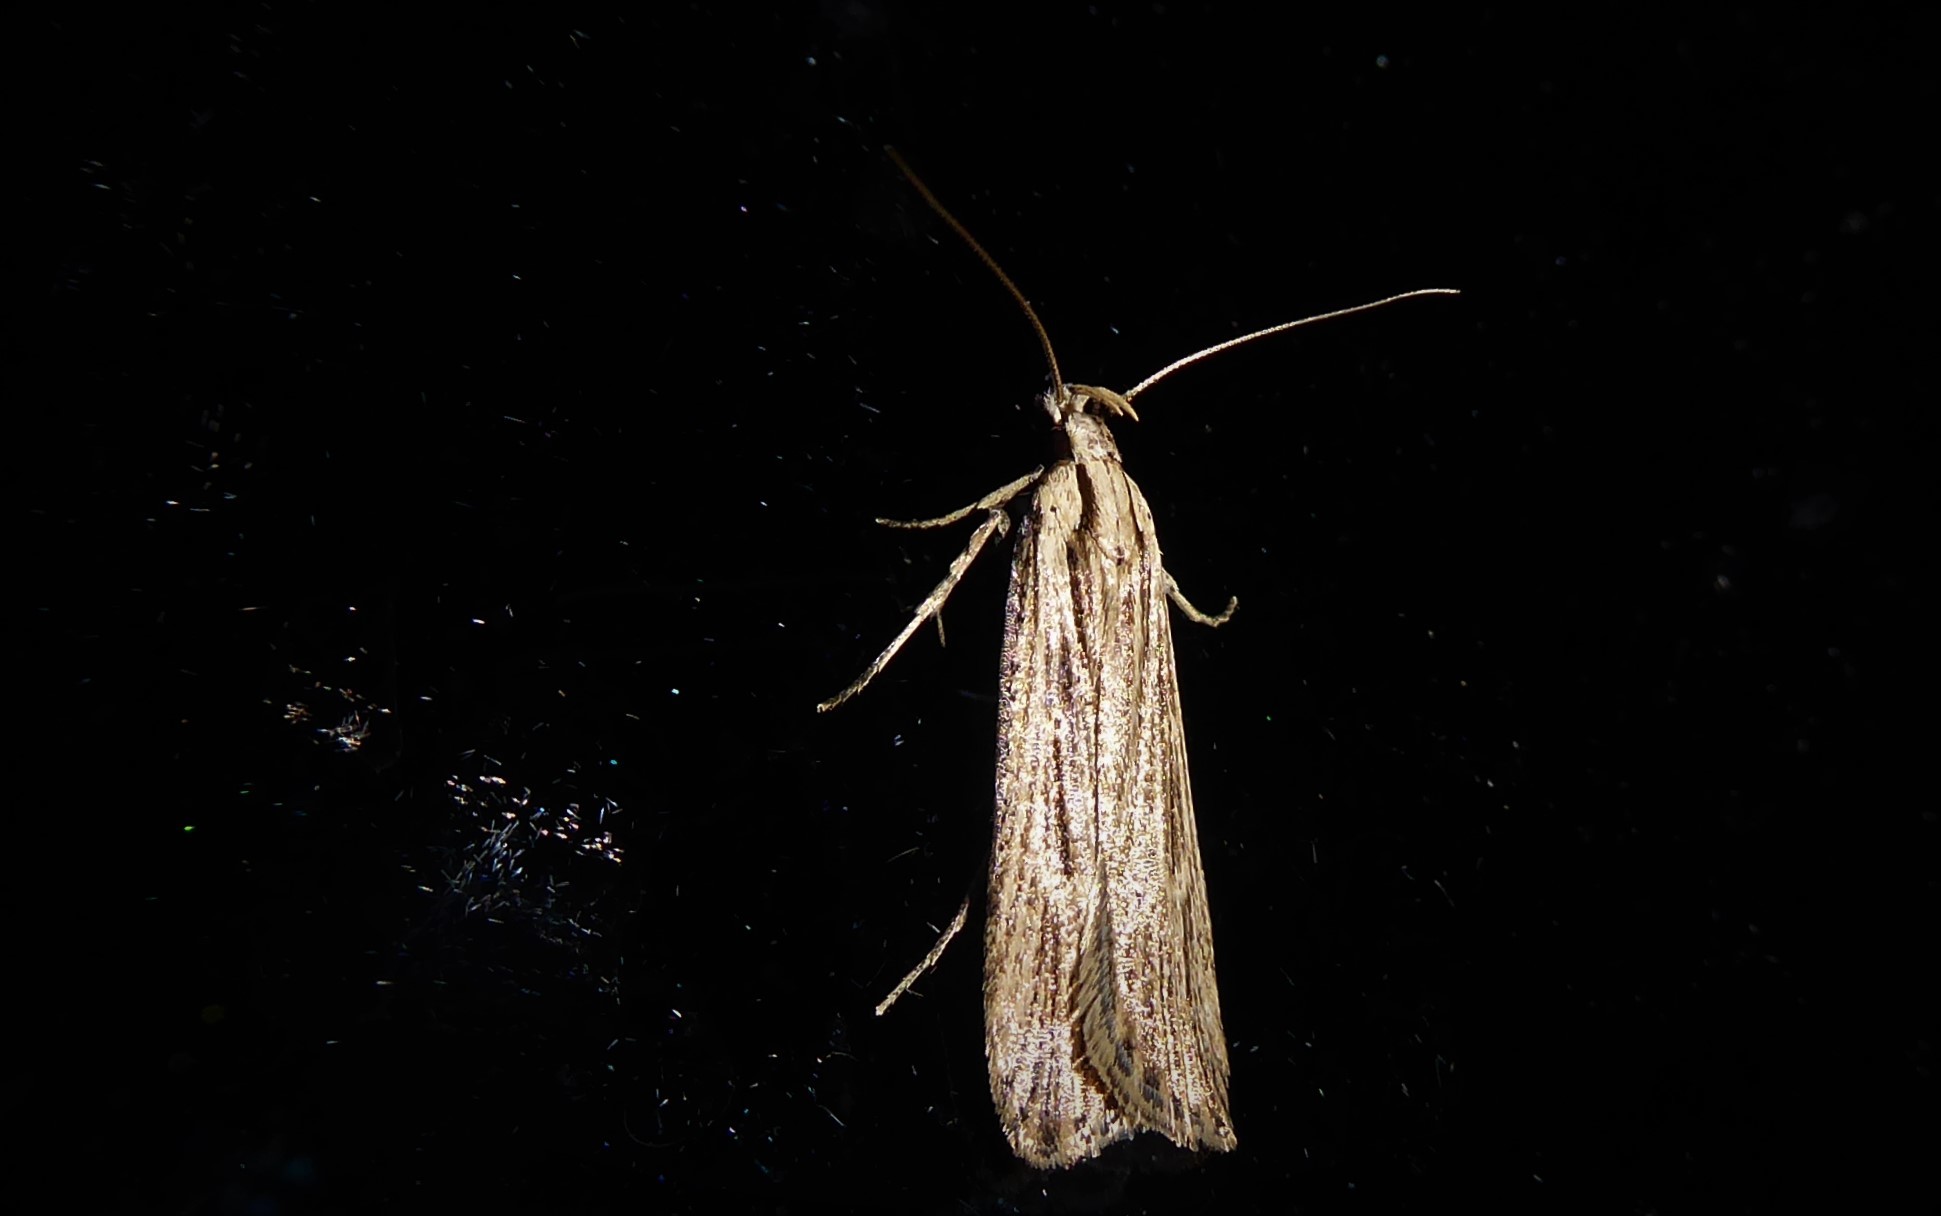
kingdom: Animalia
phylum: Arthropoda
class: Insecta
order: Lepidoptera
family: Gelechiidae
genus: Anisoplaca
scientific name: Anisoplaca ptyoptera
